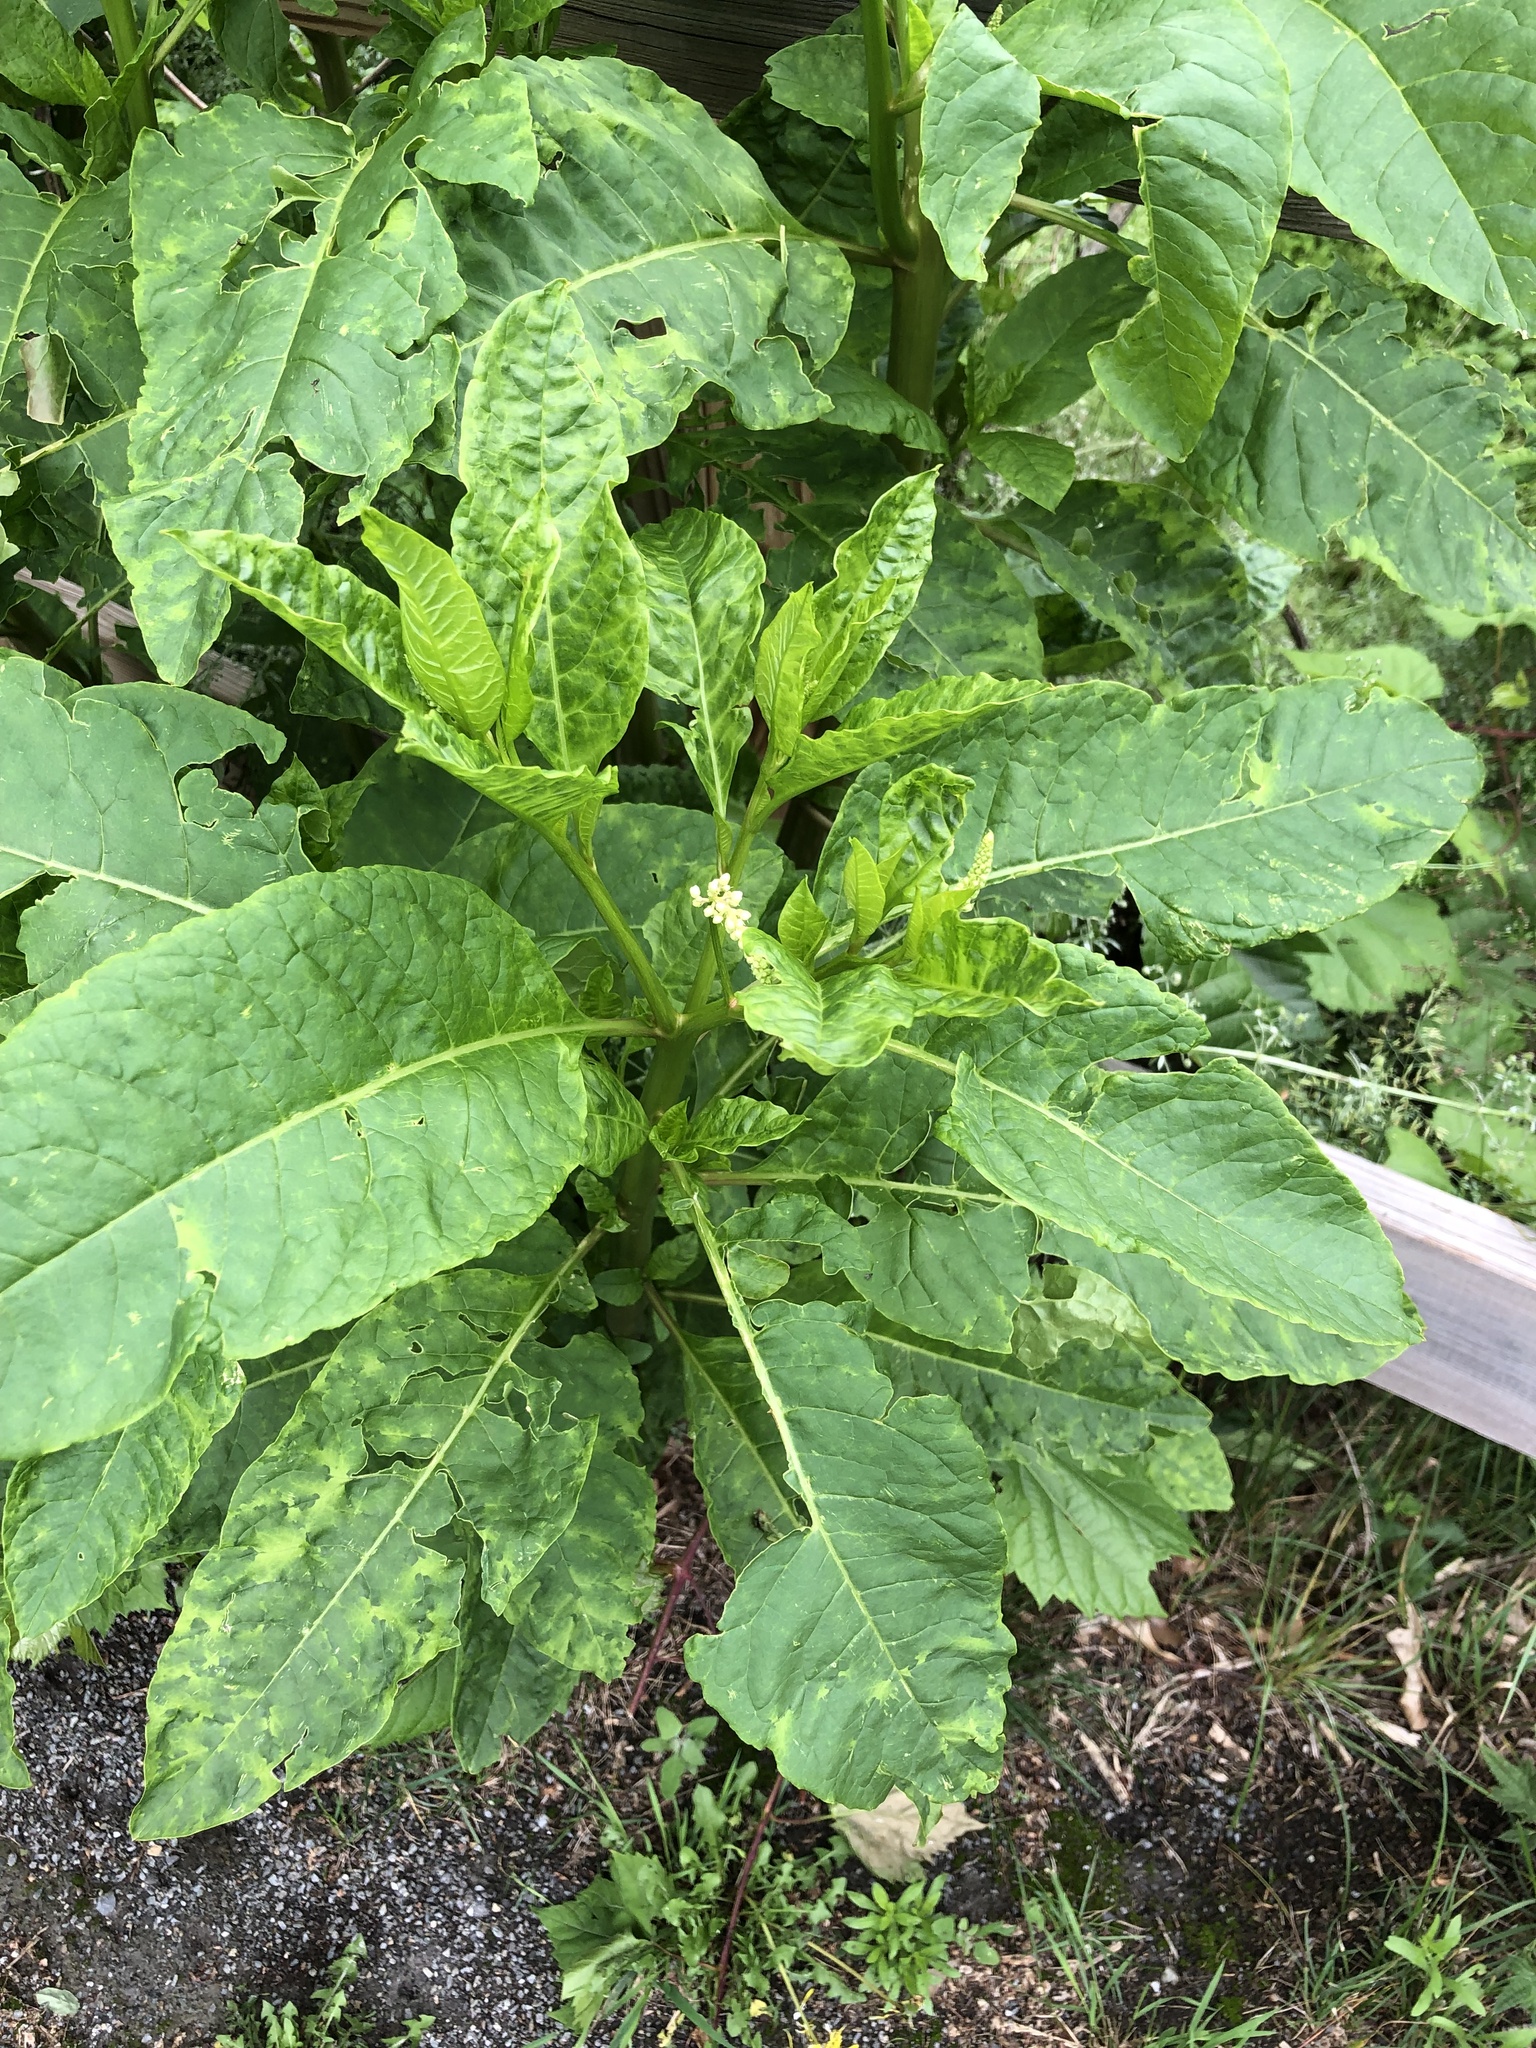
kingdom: Plantae
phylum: Tracheophyta
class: Magnoliopsida
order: Caryophyllales
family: Phytolaccaceae
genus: Phytolacca
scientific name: Phytolacca americana
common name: American pokeweed
